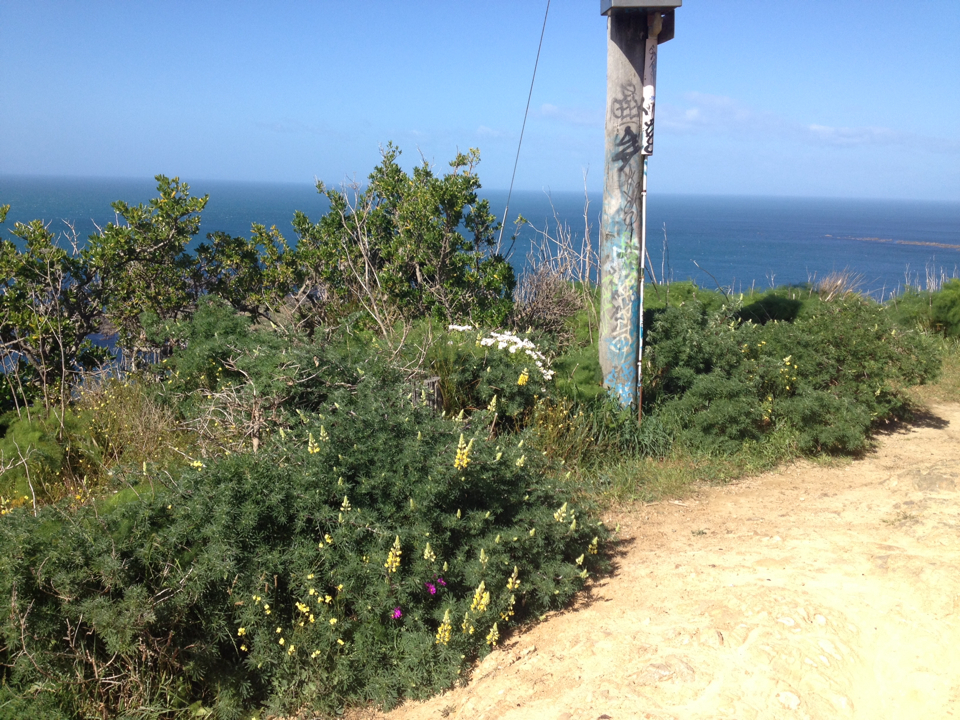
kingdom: Plantae
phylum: Tracheophyta
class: Magnoliopsida
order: Fabales
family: Fabaceae
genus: Lupinus
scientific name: Lupinus arboreus
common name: Yellow bush lupine
